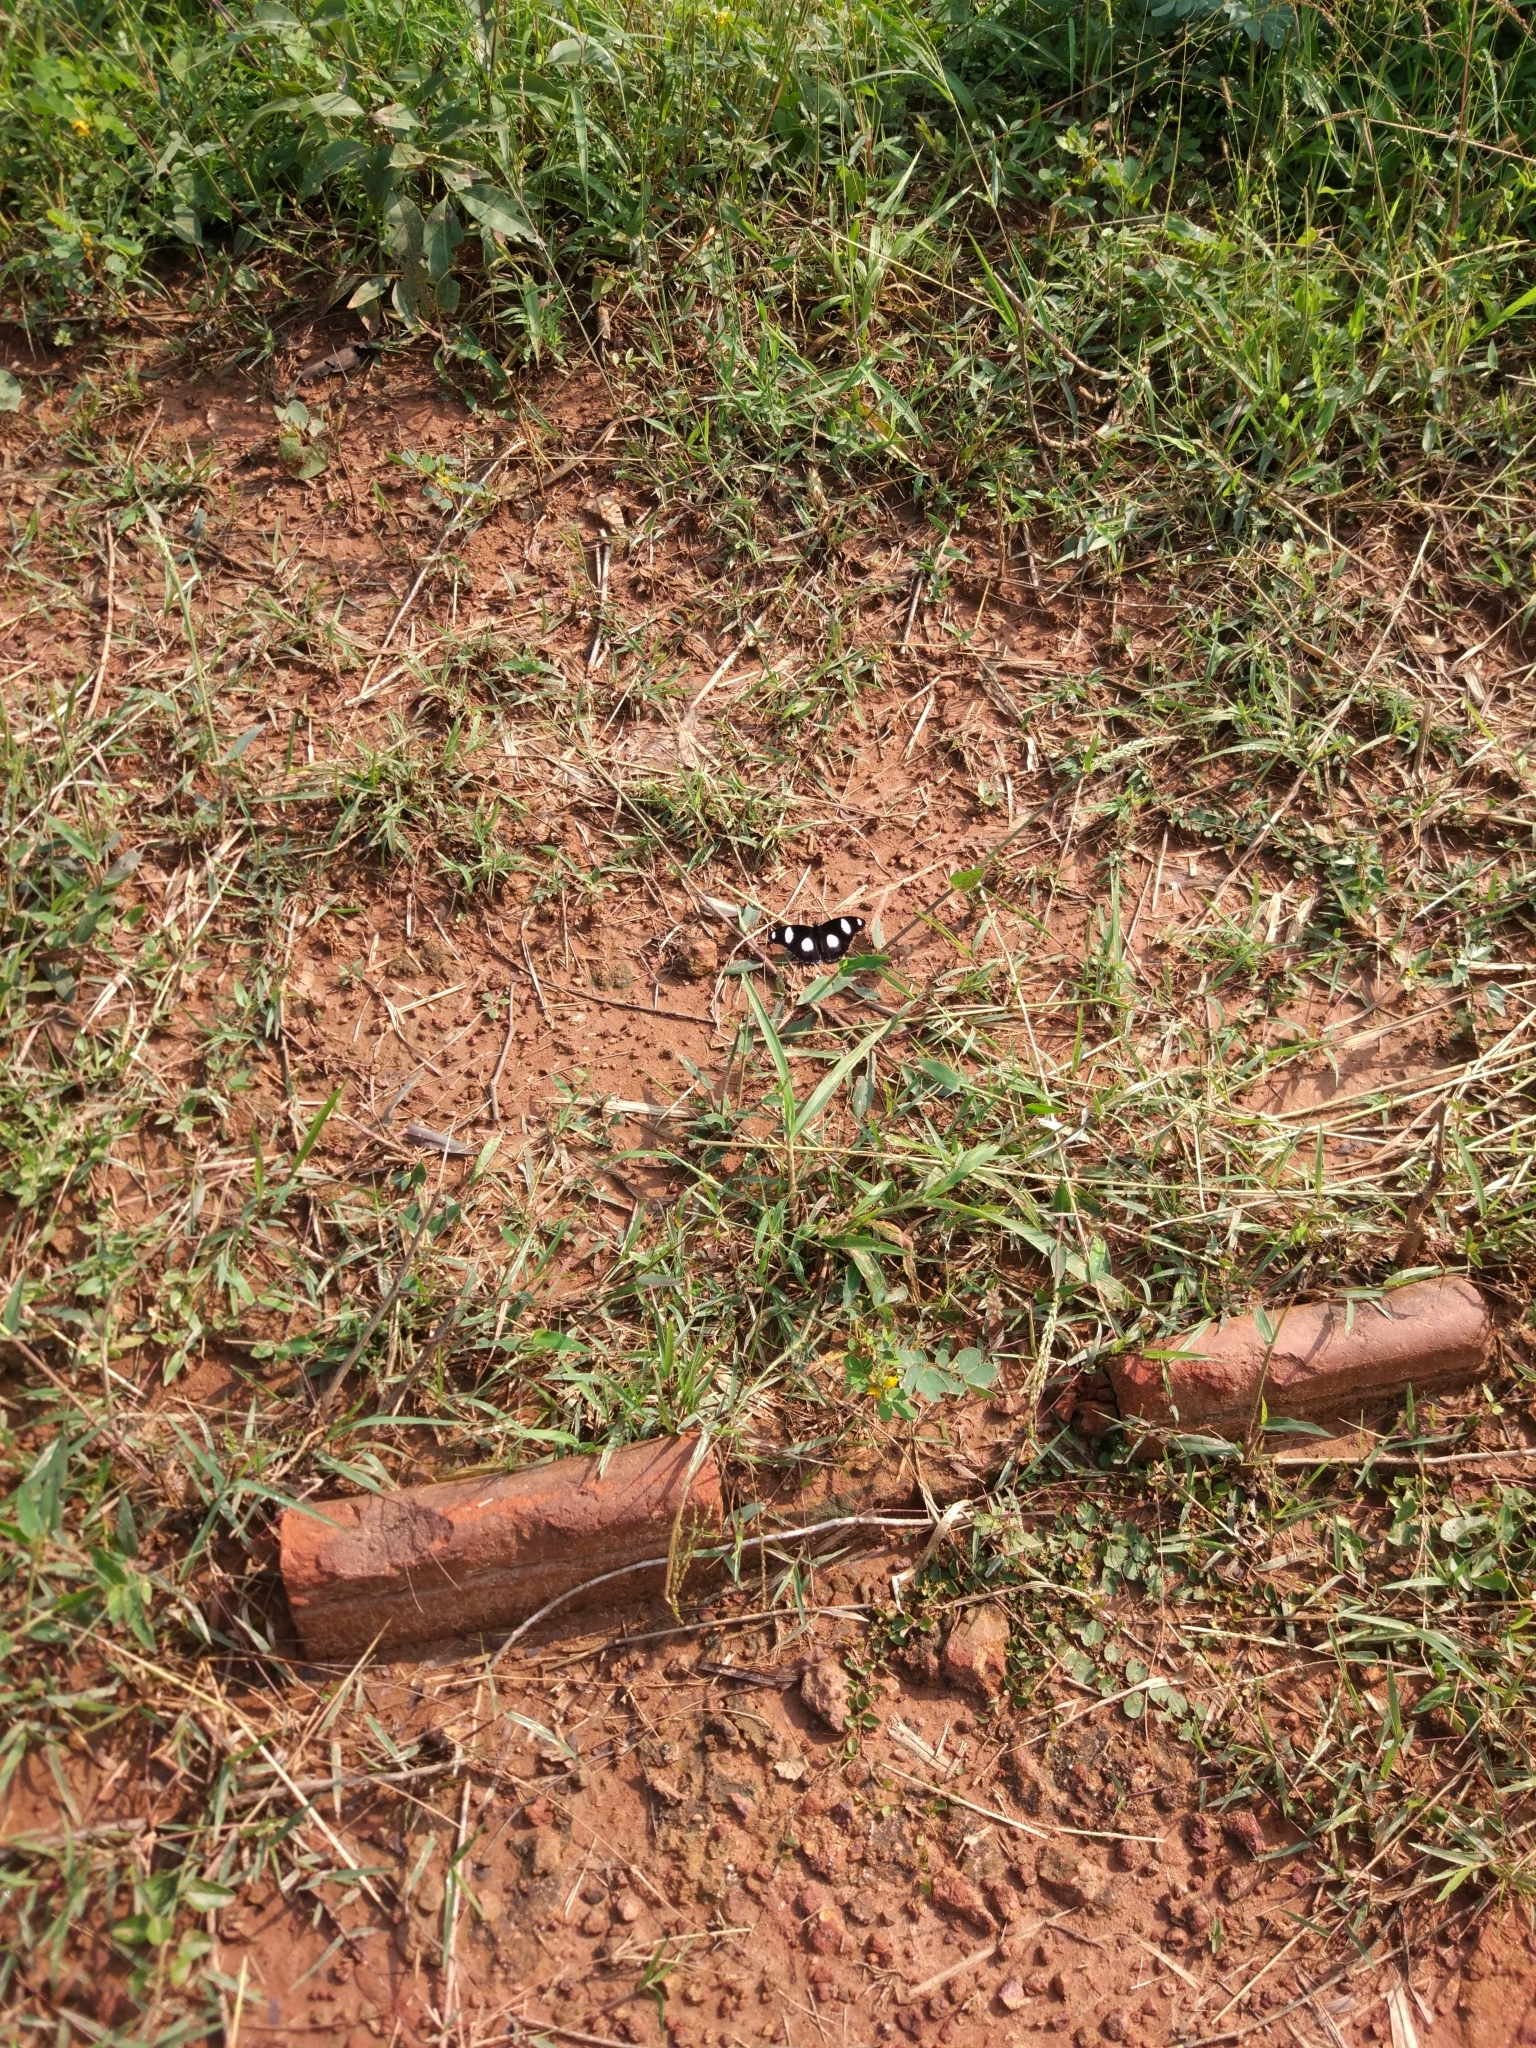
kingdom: Animalia
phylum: Arthropoda
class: Insecta
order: Lepidoptera
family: Nymphalidae
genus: Hypolimnas
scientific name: Hypolimnas misippus
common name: False plain tiger
